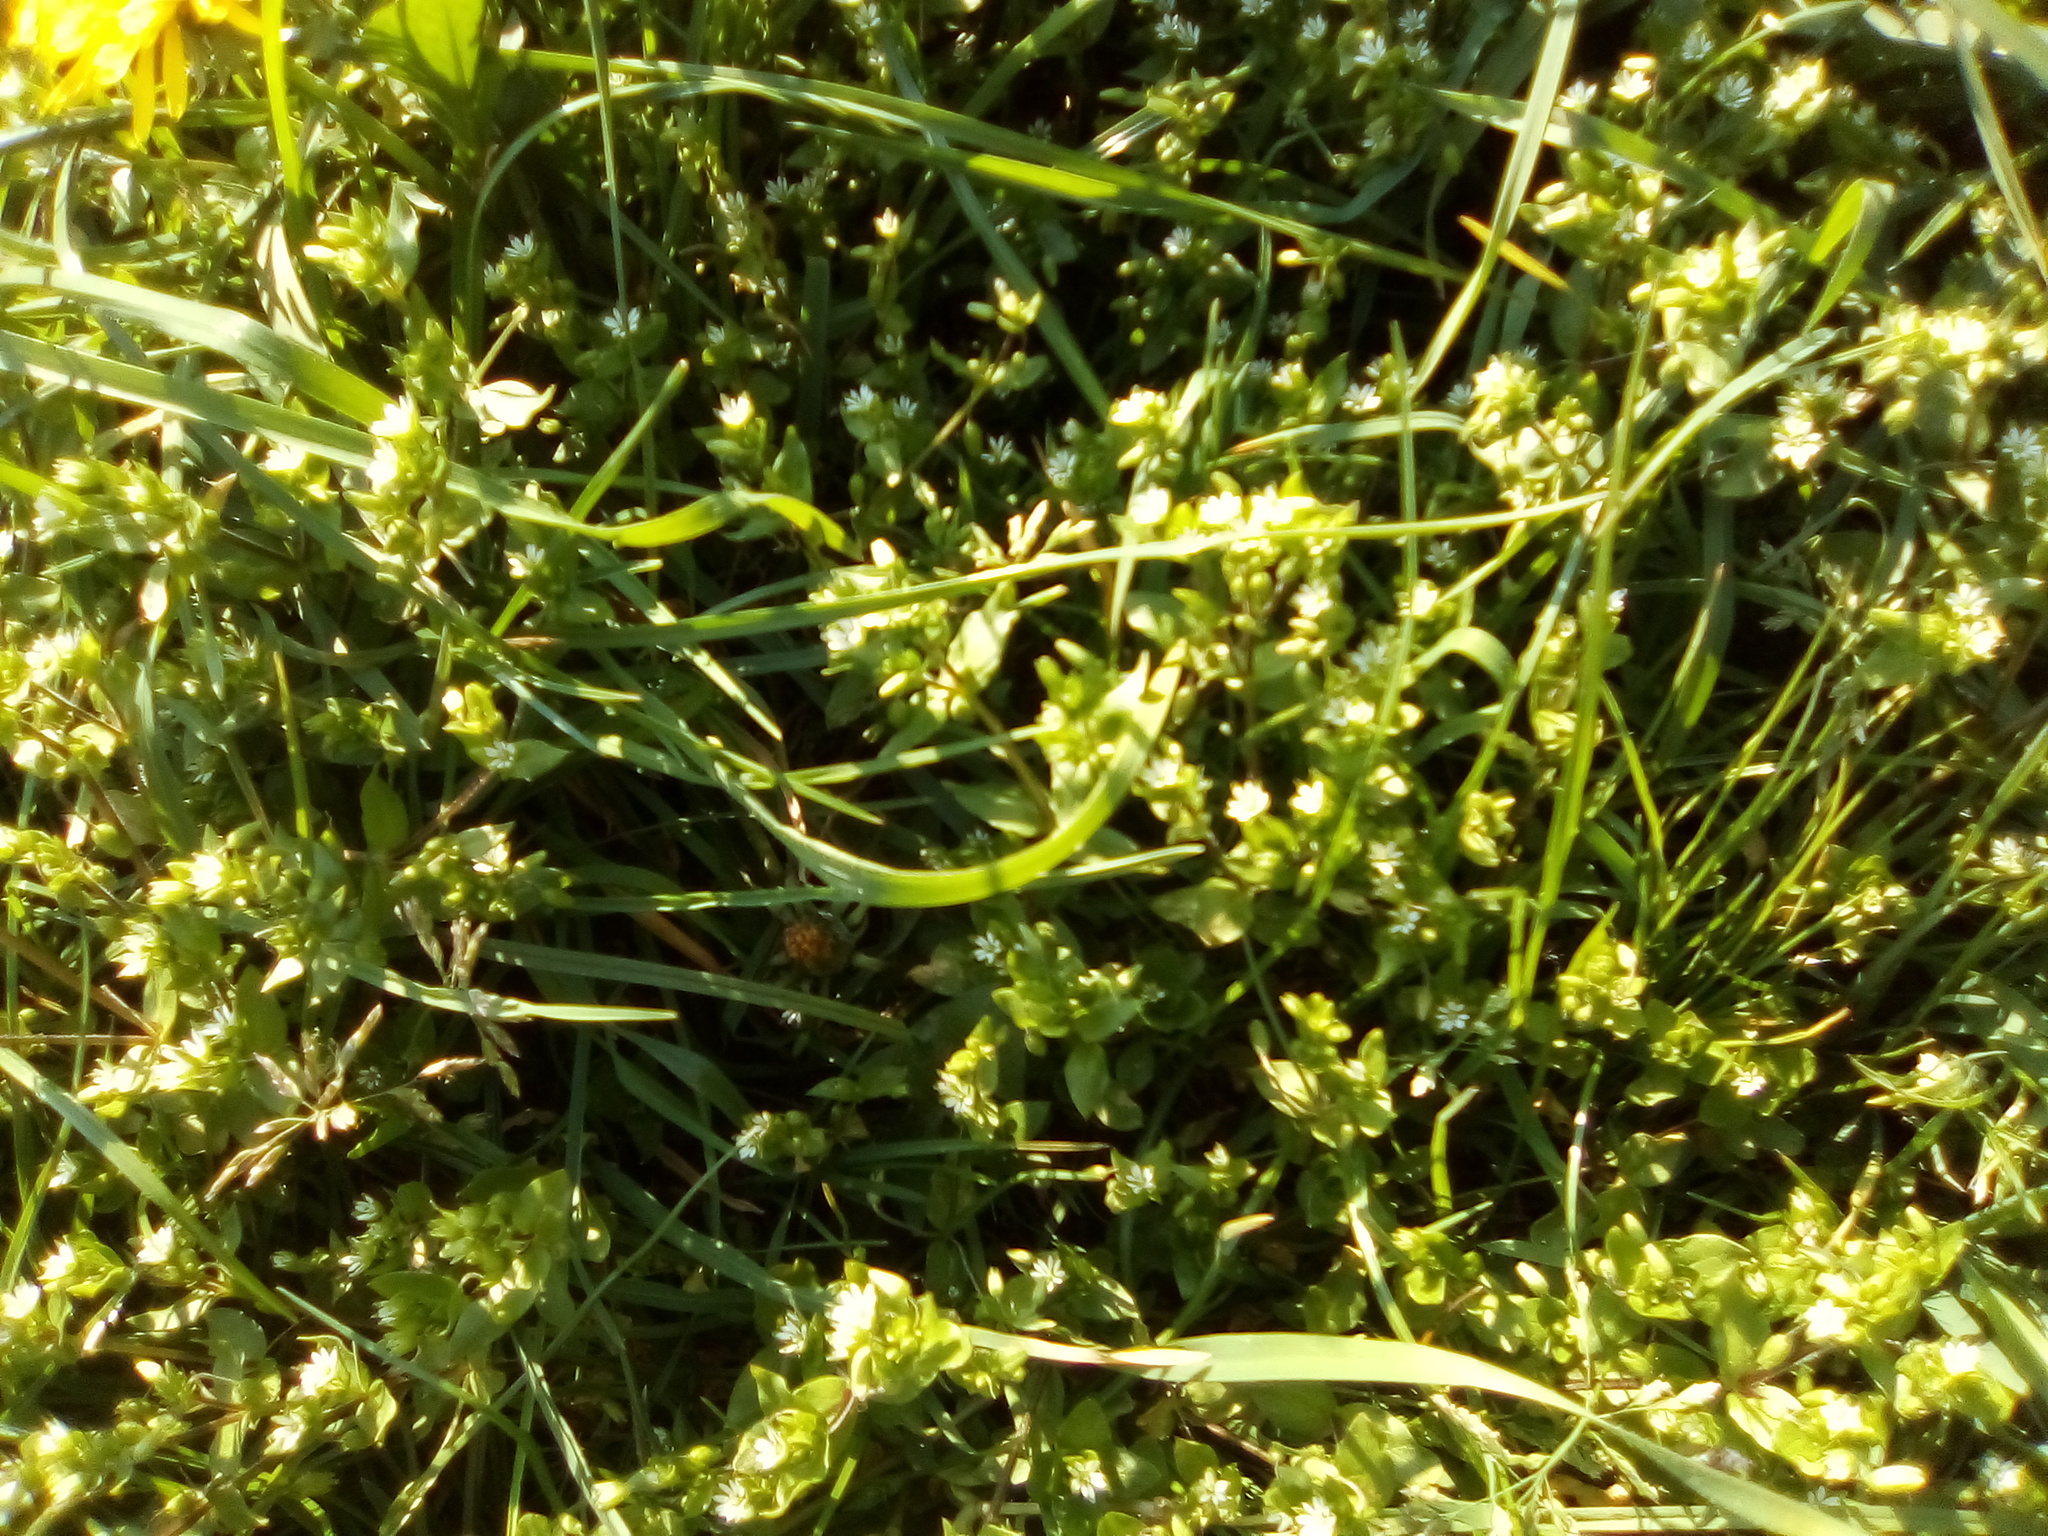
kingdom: Plantae
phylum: Tracheophyta
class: Magnoliopsida
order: Caryophyllales
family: Caryophyllaceae
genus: Stellaria
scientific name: Stellaria media
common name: Common chickweed
